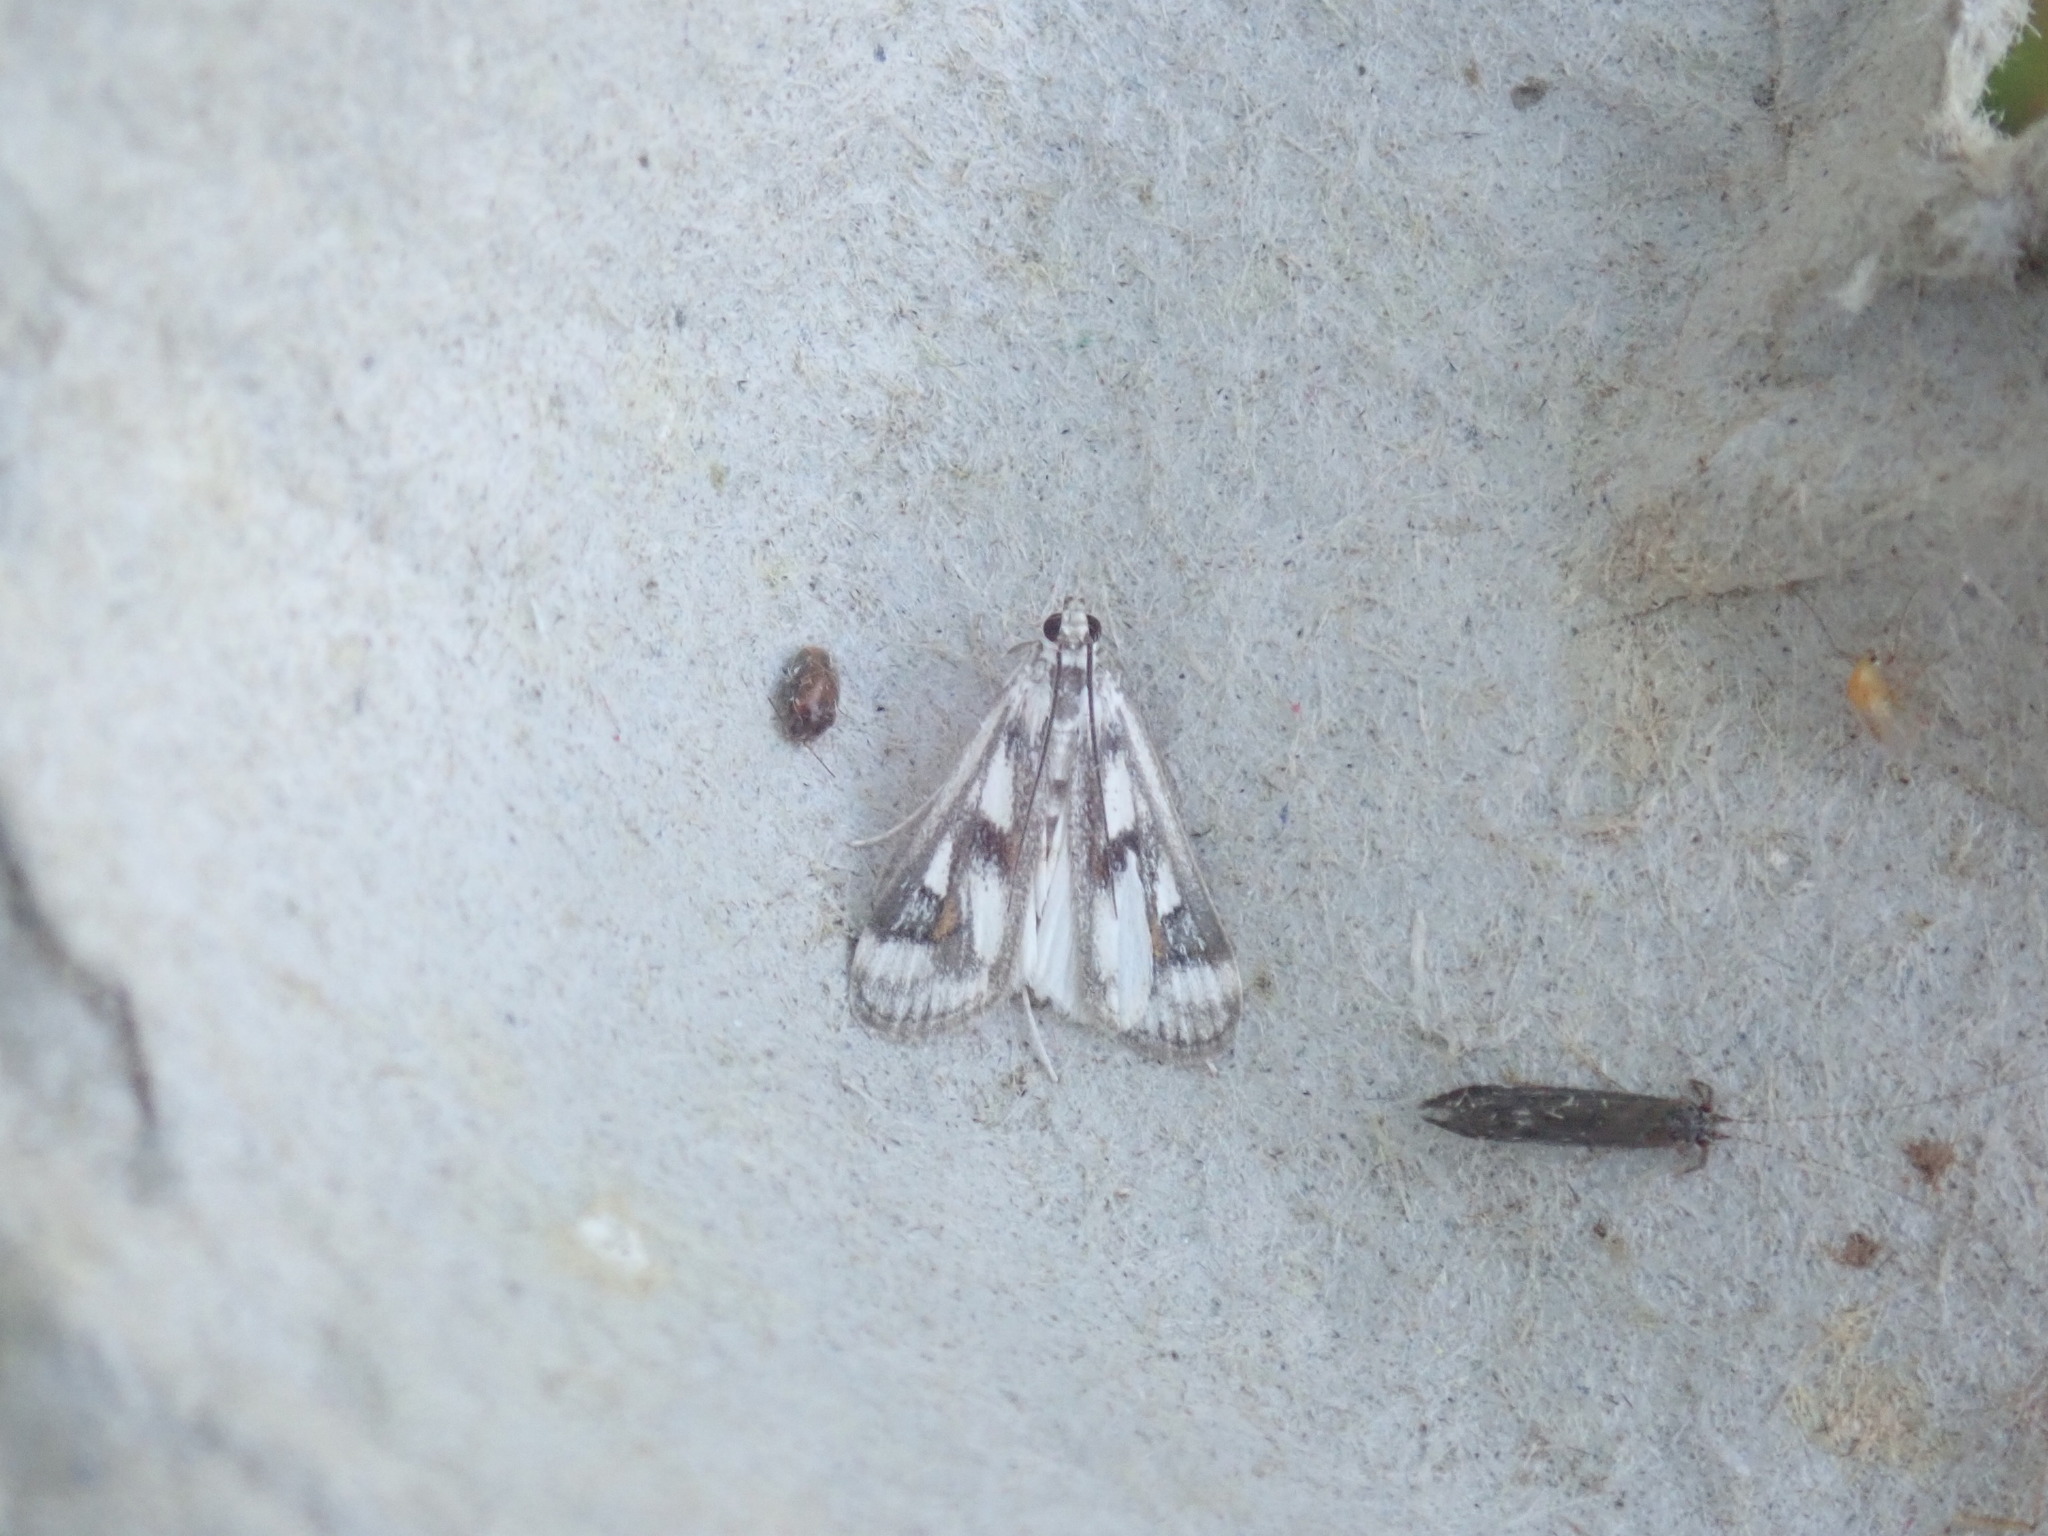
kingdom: Animalia
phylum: Arthropoda
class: Insecta
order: Lepidoptera
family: Crambidae
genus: Parapoynx
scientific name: Parapoynx maculalis
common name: Polymorphic pondweed moth
